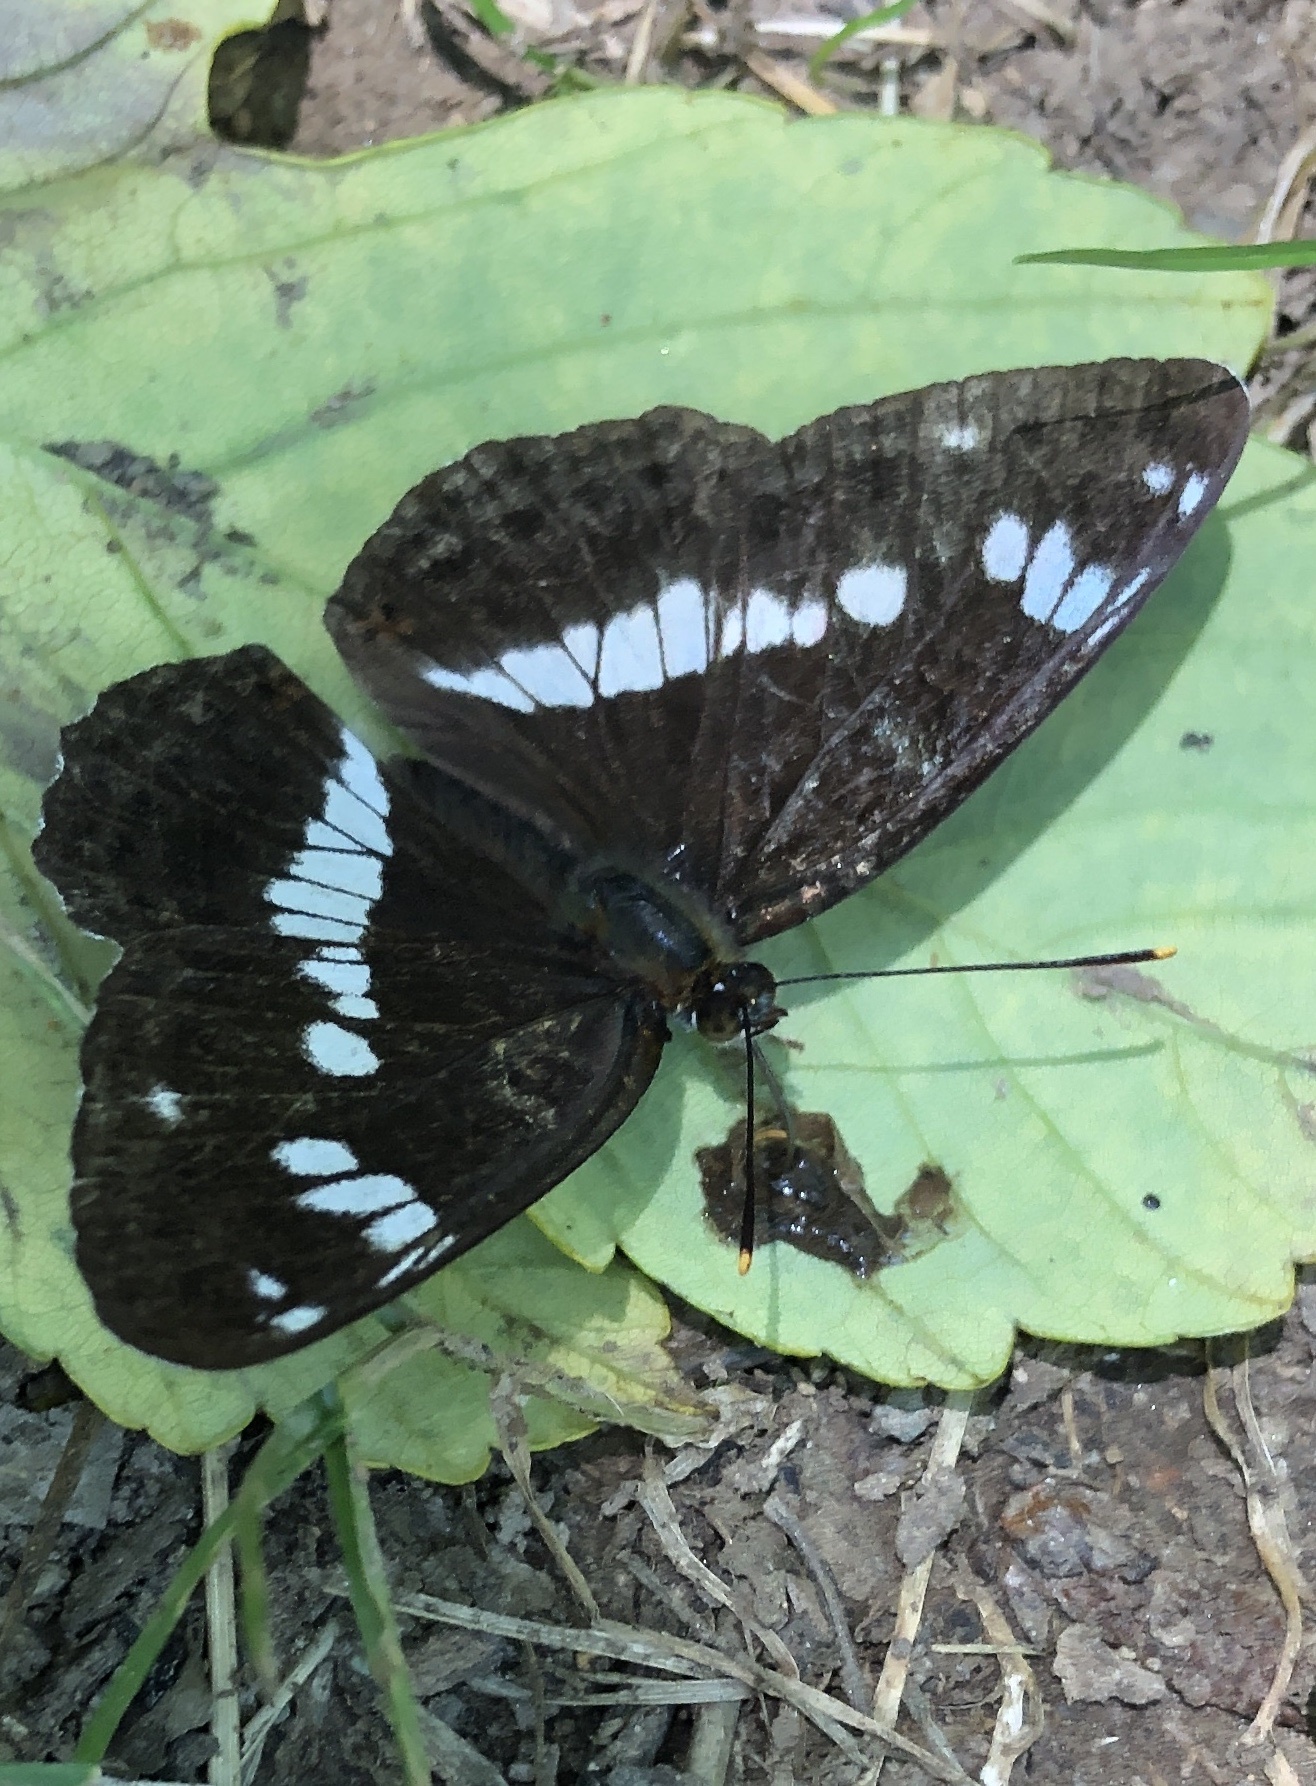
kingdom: Animalia
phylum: Arthropoda
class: Insecta
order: Lepidoptera
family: Nymphalidae
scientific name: Nymphalidae
